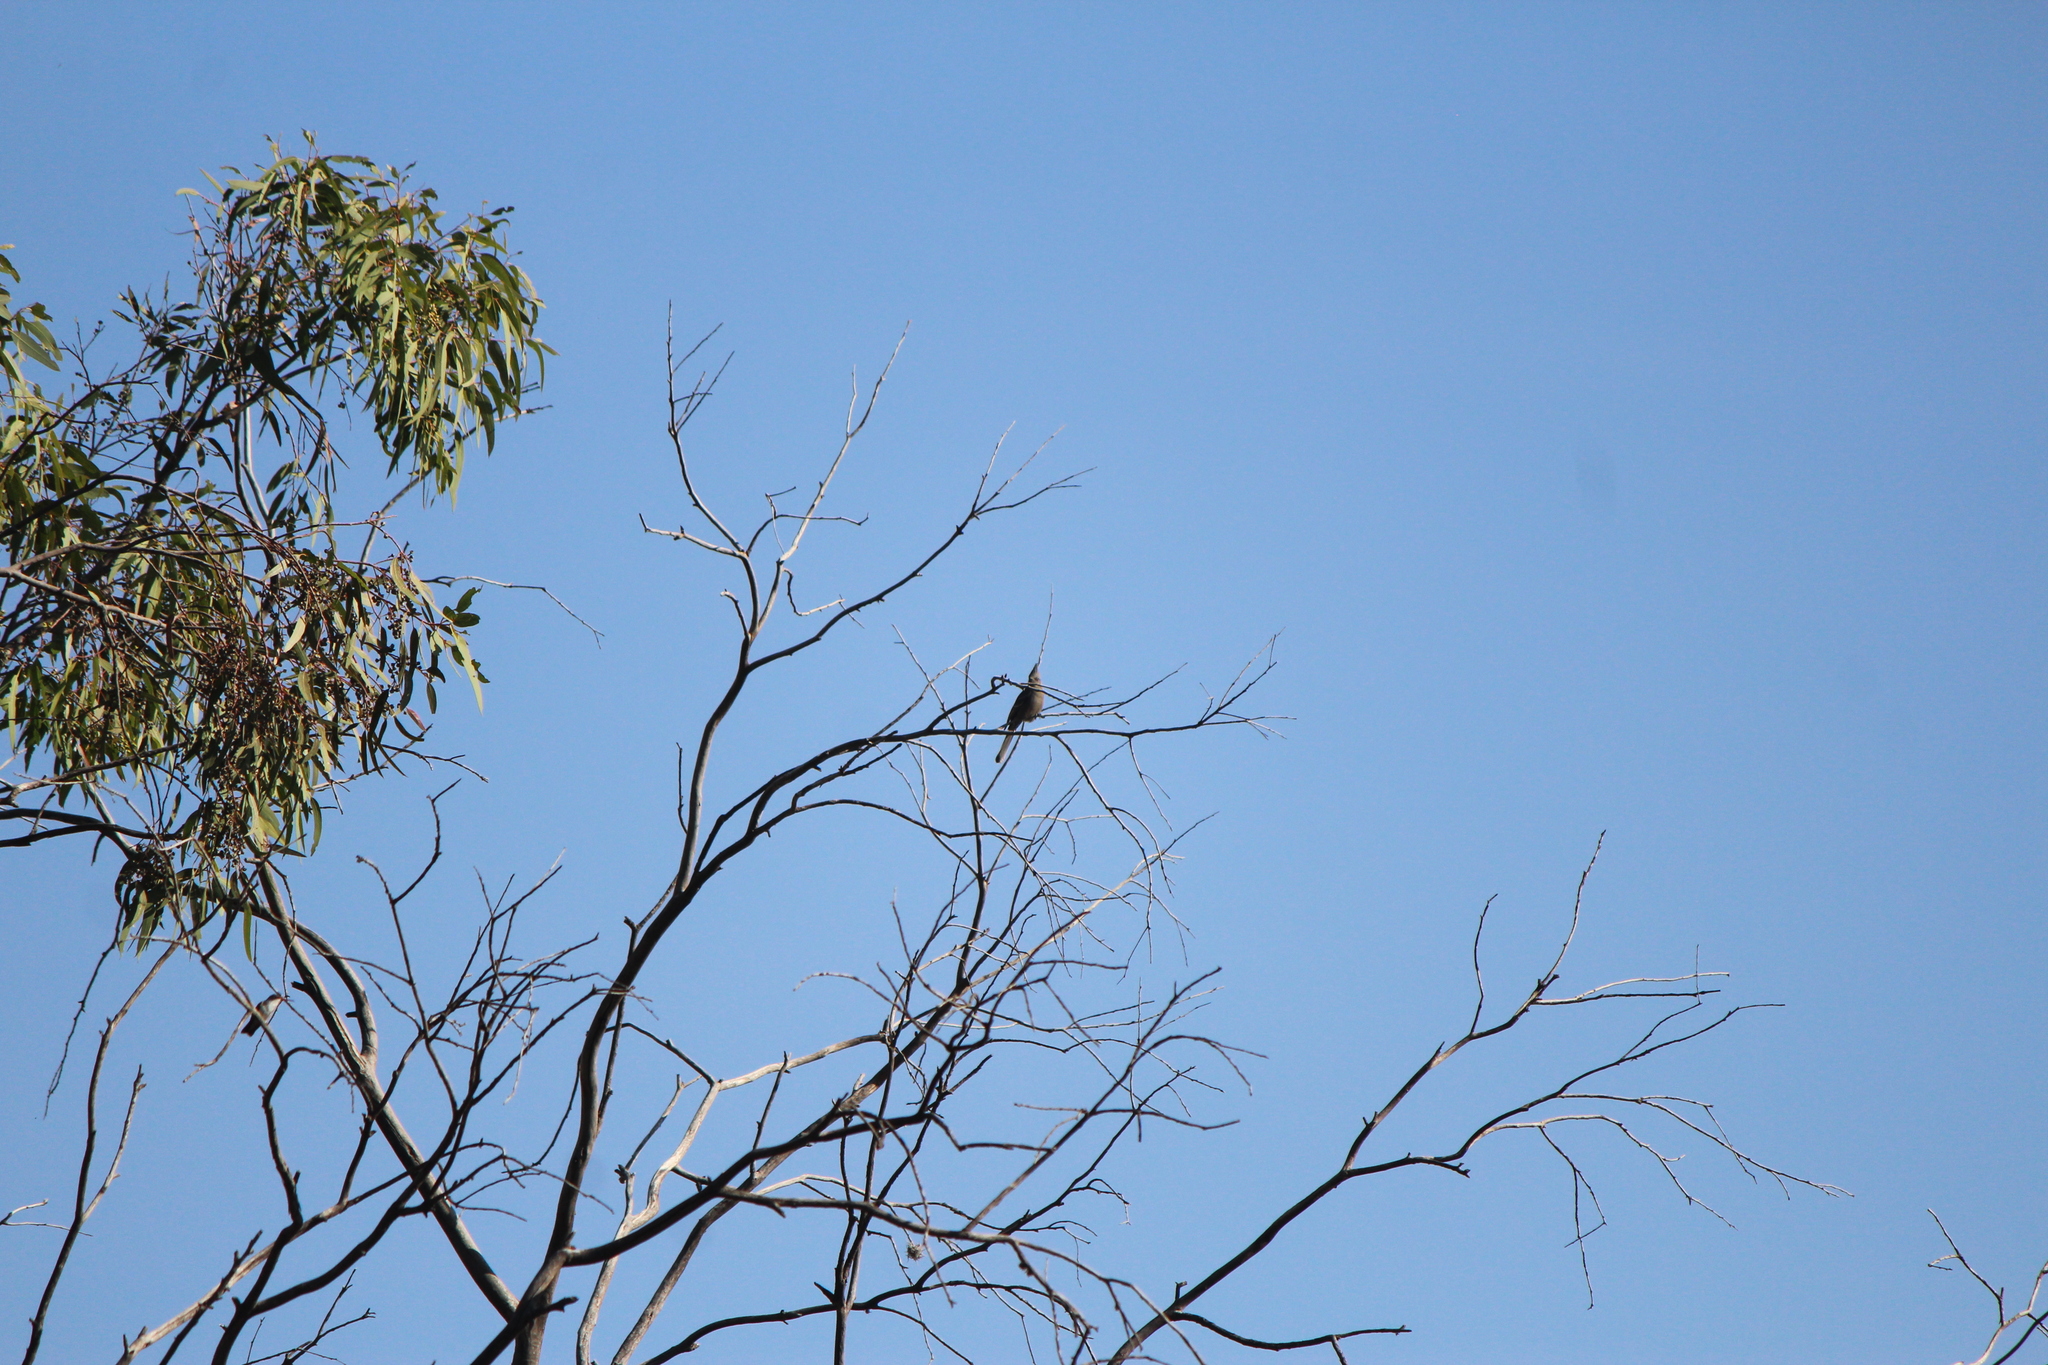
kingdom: Animalia
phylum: Chordata
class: Aves
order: Passeriformes
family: Ptilogonatidae
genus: Phainopepla
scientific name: Phainopepla nitens
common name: Phainopepla
